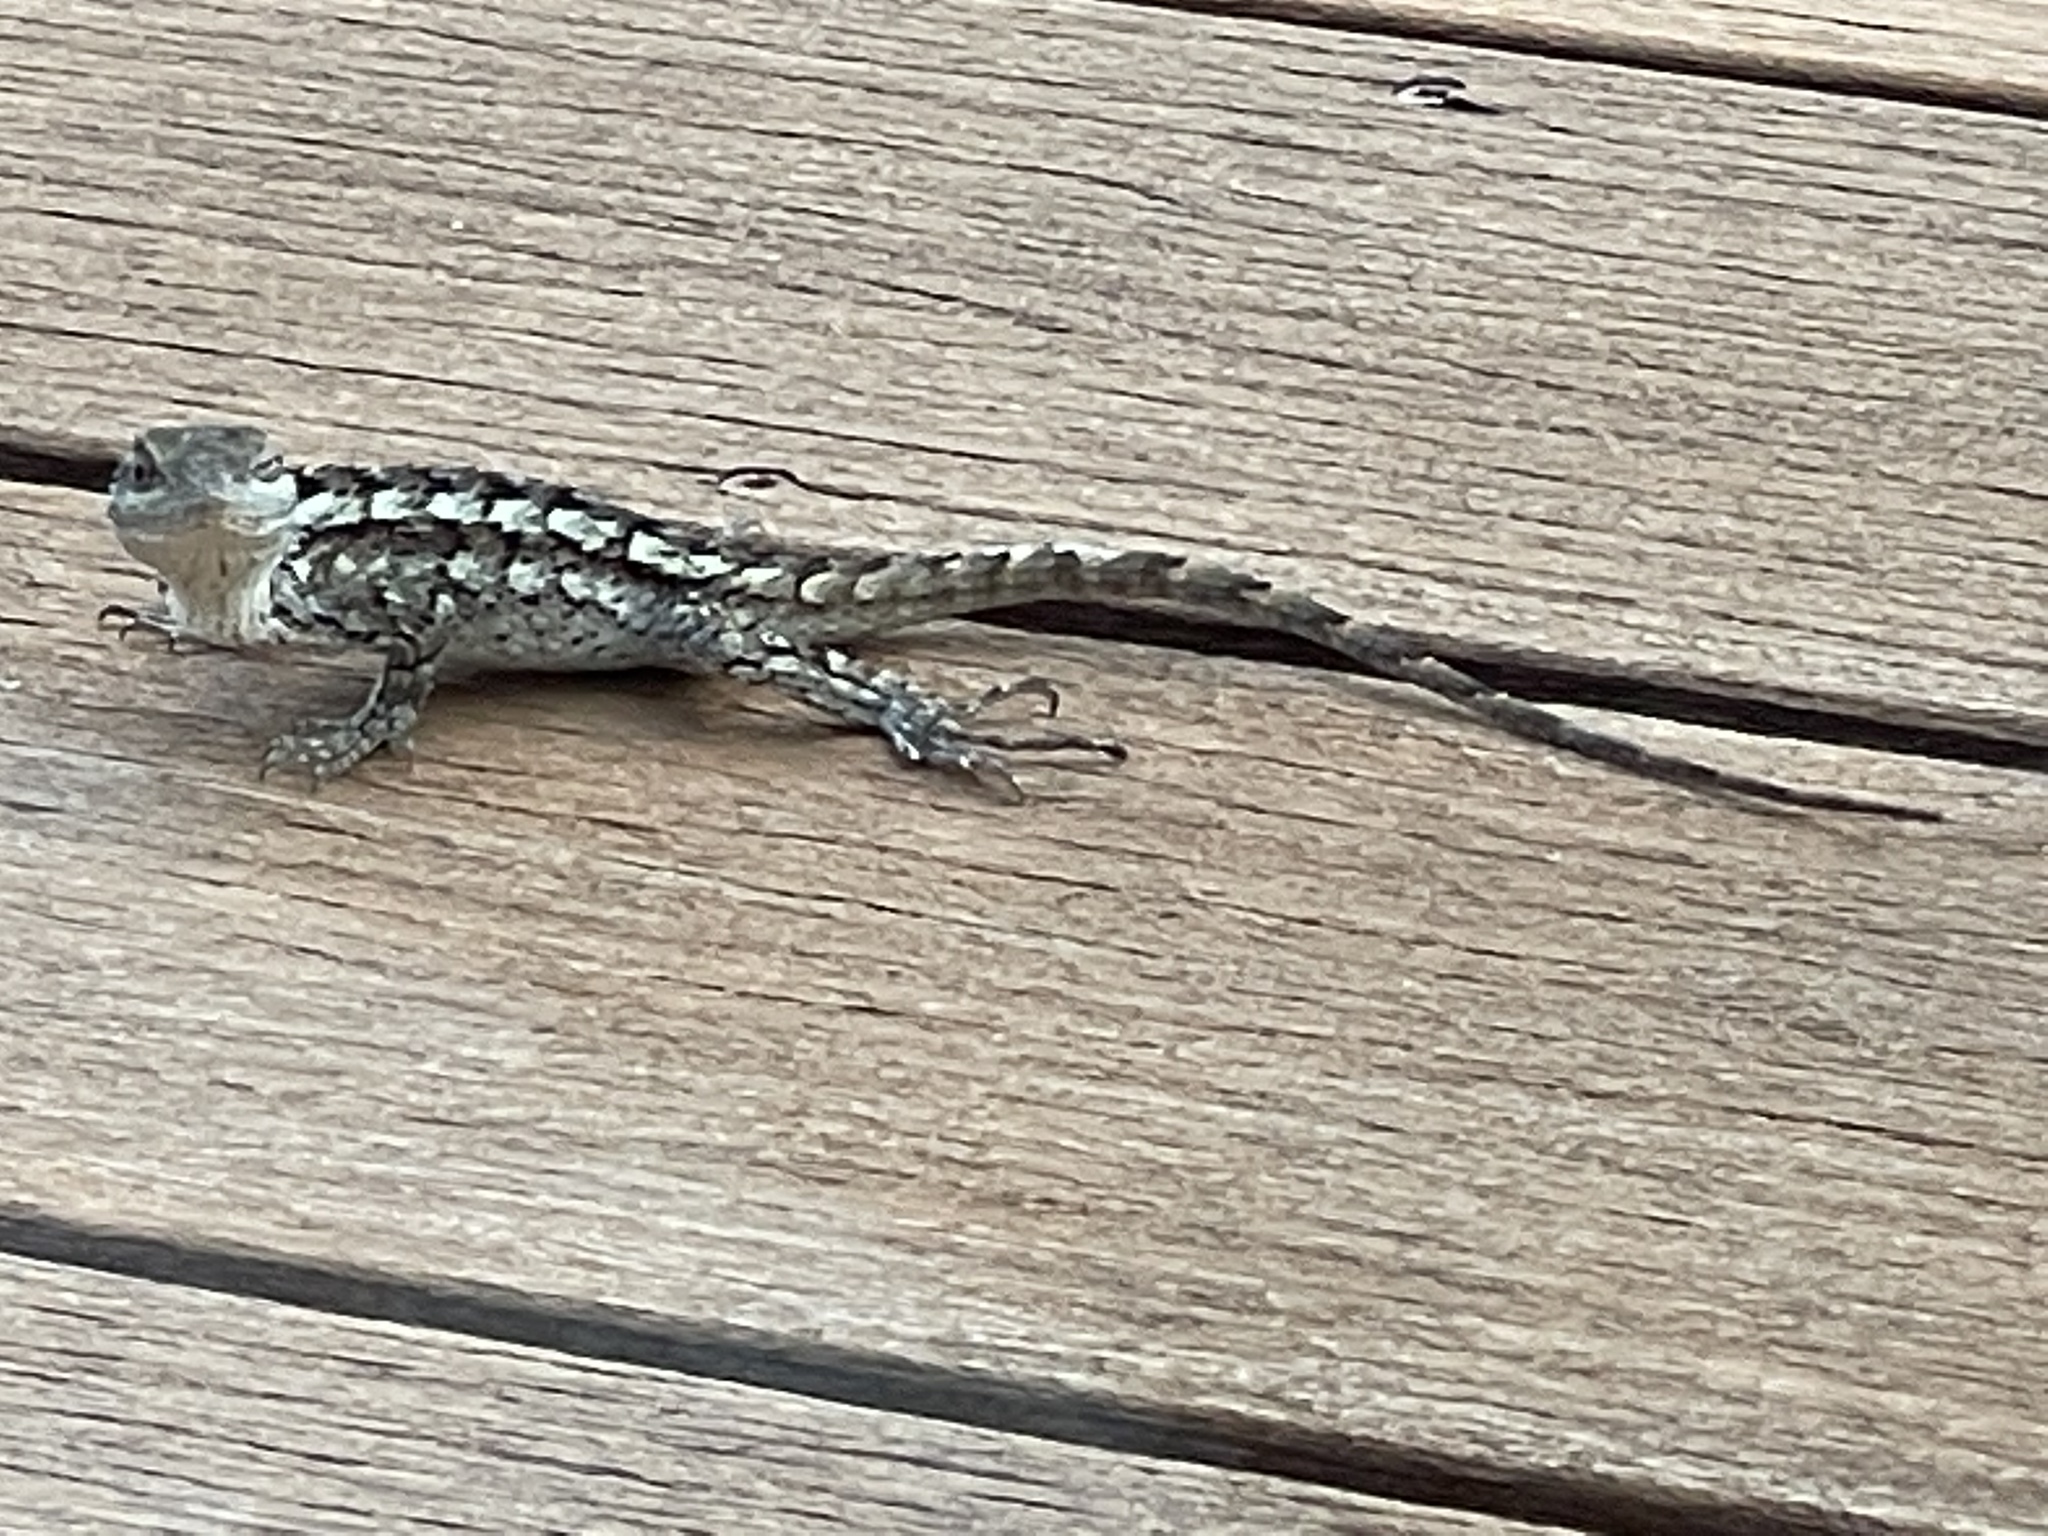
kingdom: Animalia
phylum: Chordata
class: Squamata
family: Phrynosomatidae
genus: Sceloporus
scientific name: Sceloporus olivaceus
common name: Texas spiny lizard
